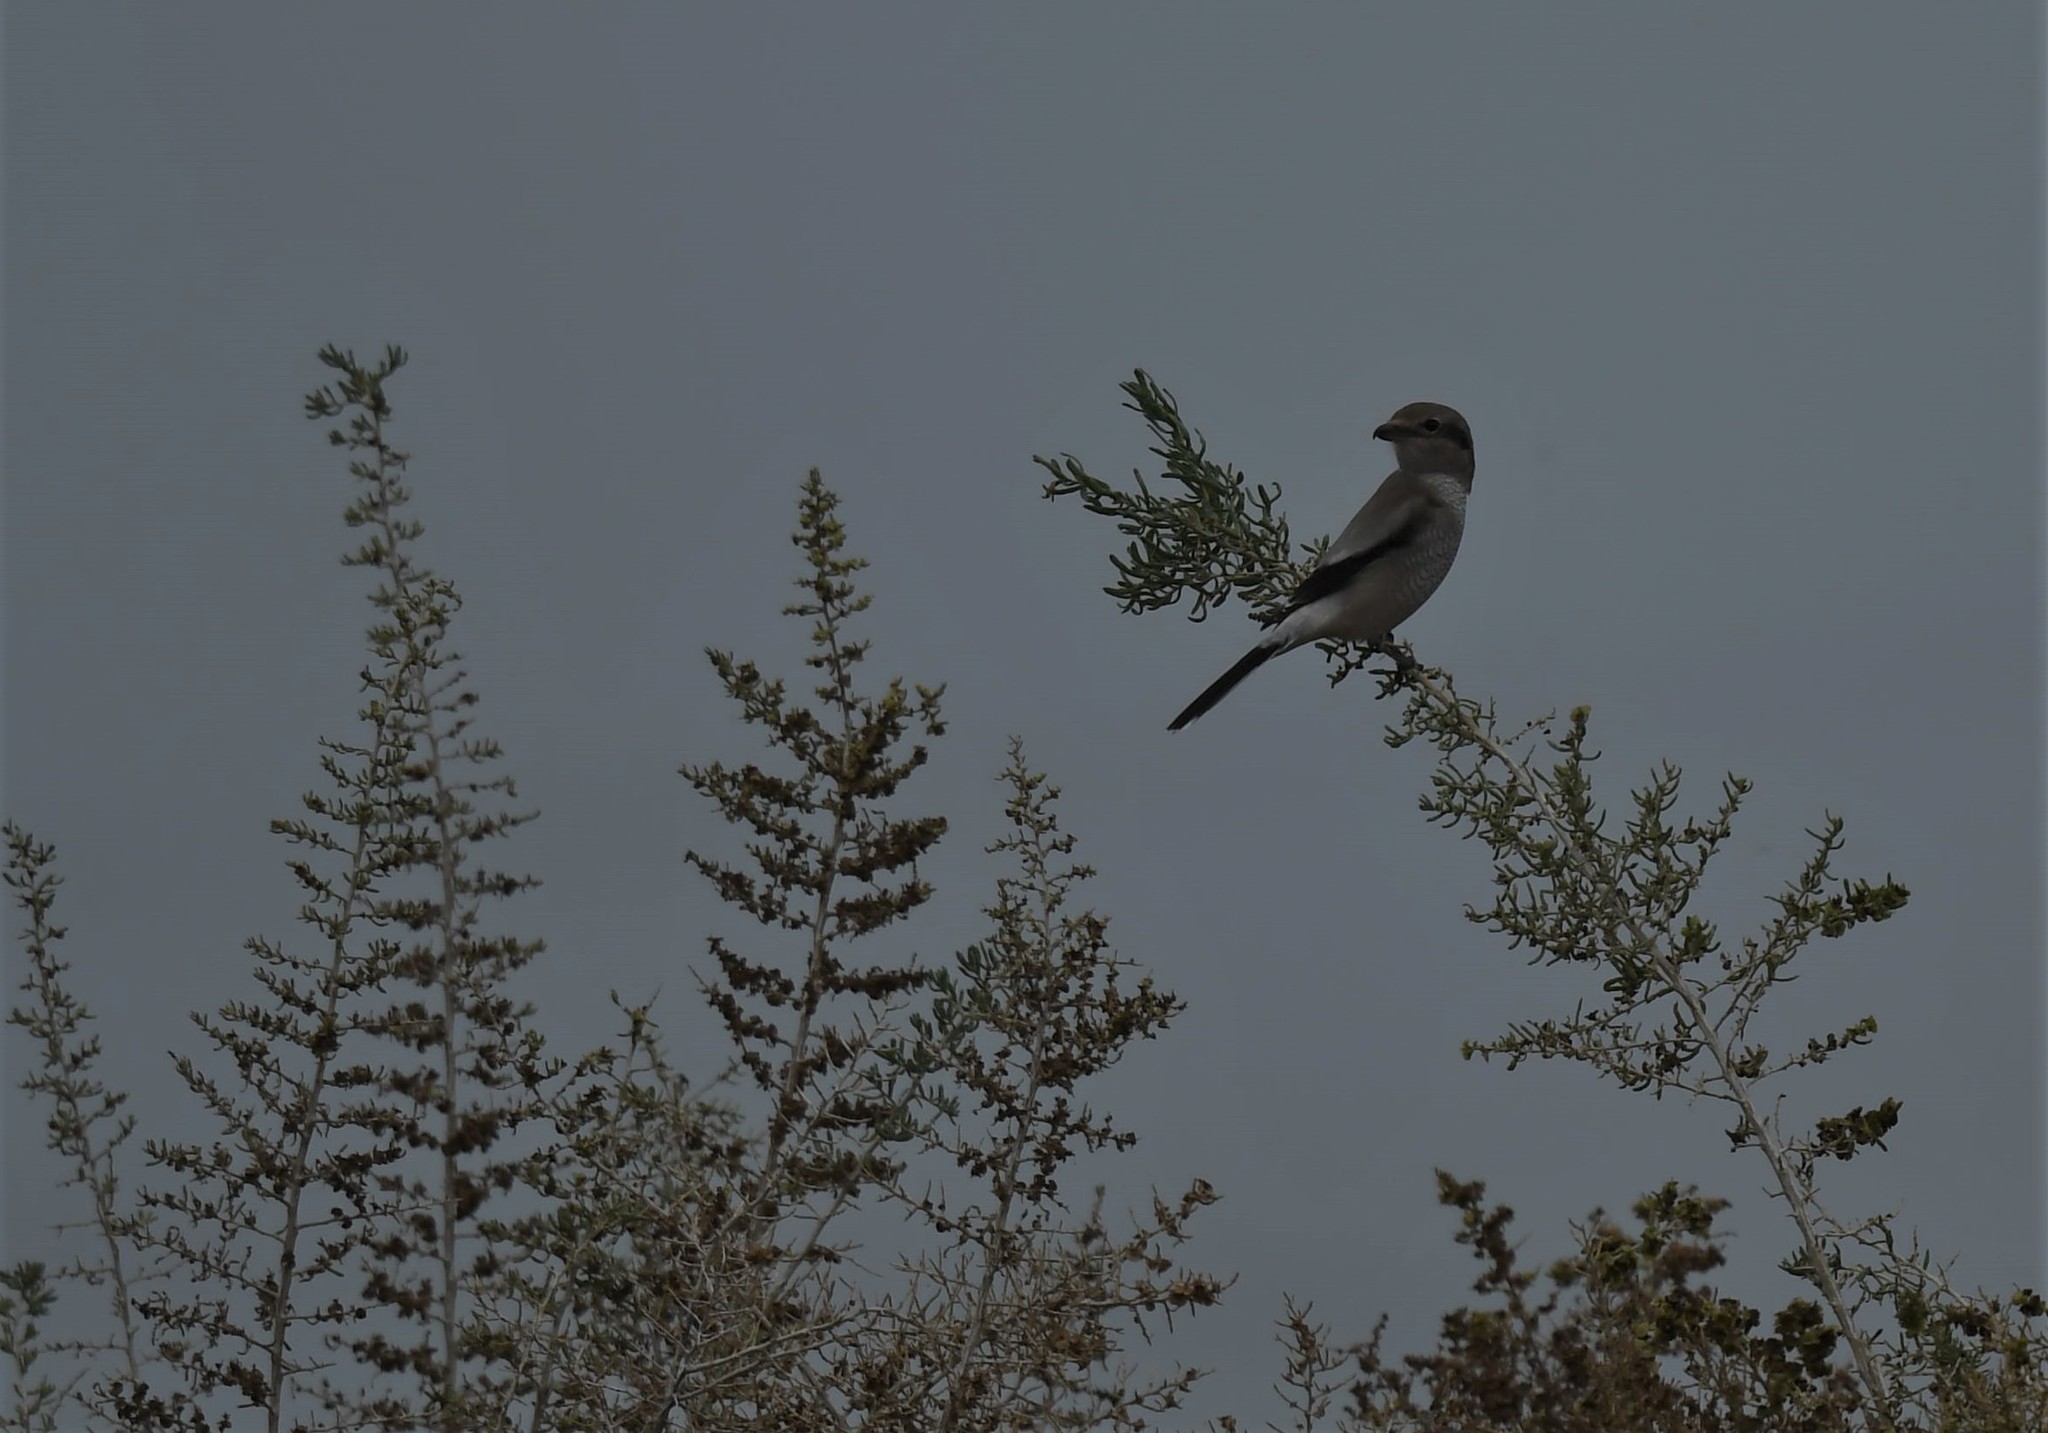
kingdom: Animalia
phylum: Chordata
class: Aves
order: Passeriformes
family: Laniidae
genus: Lanius
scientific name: Lanius borealis
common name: Northern shrike
